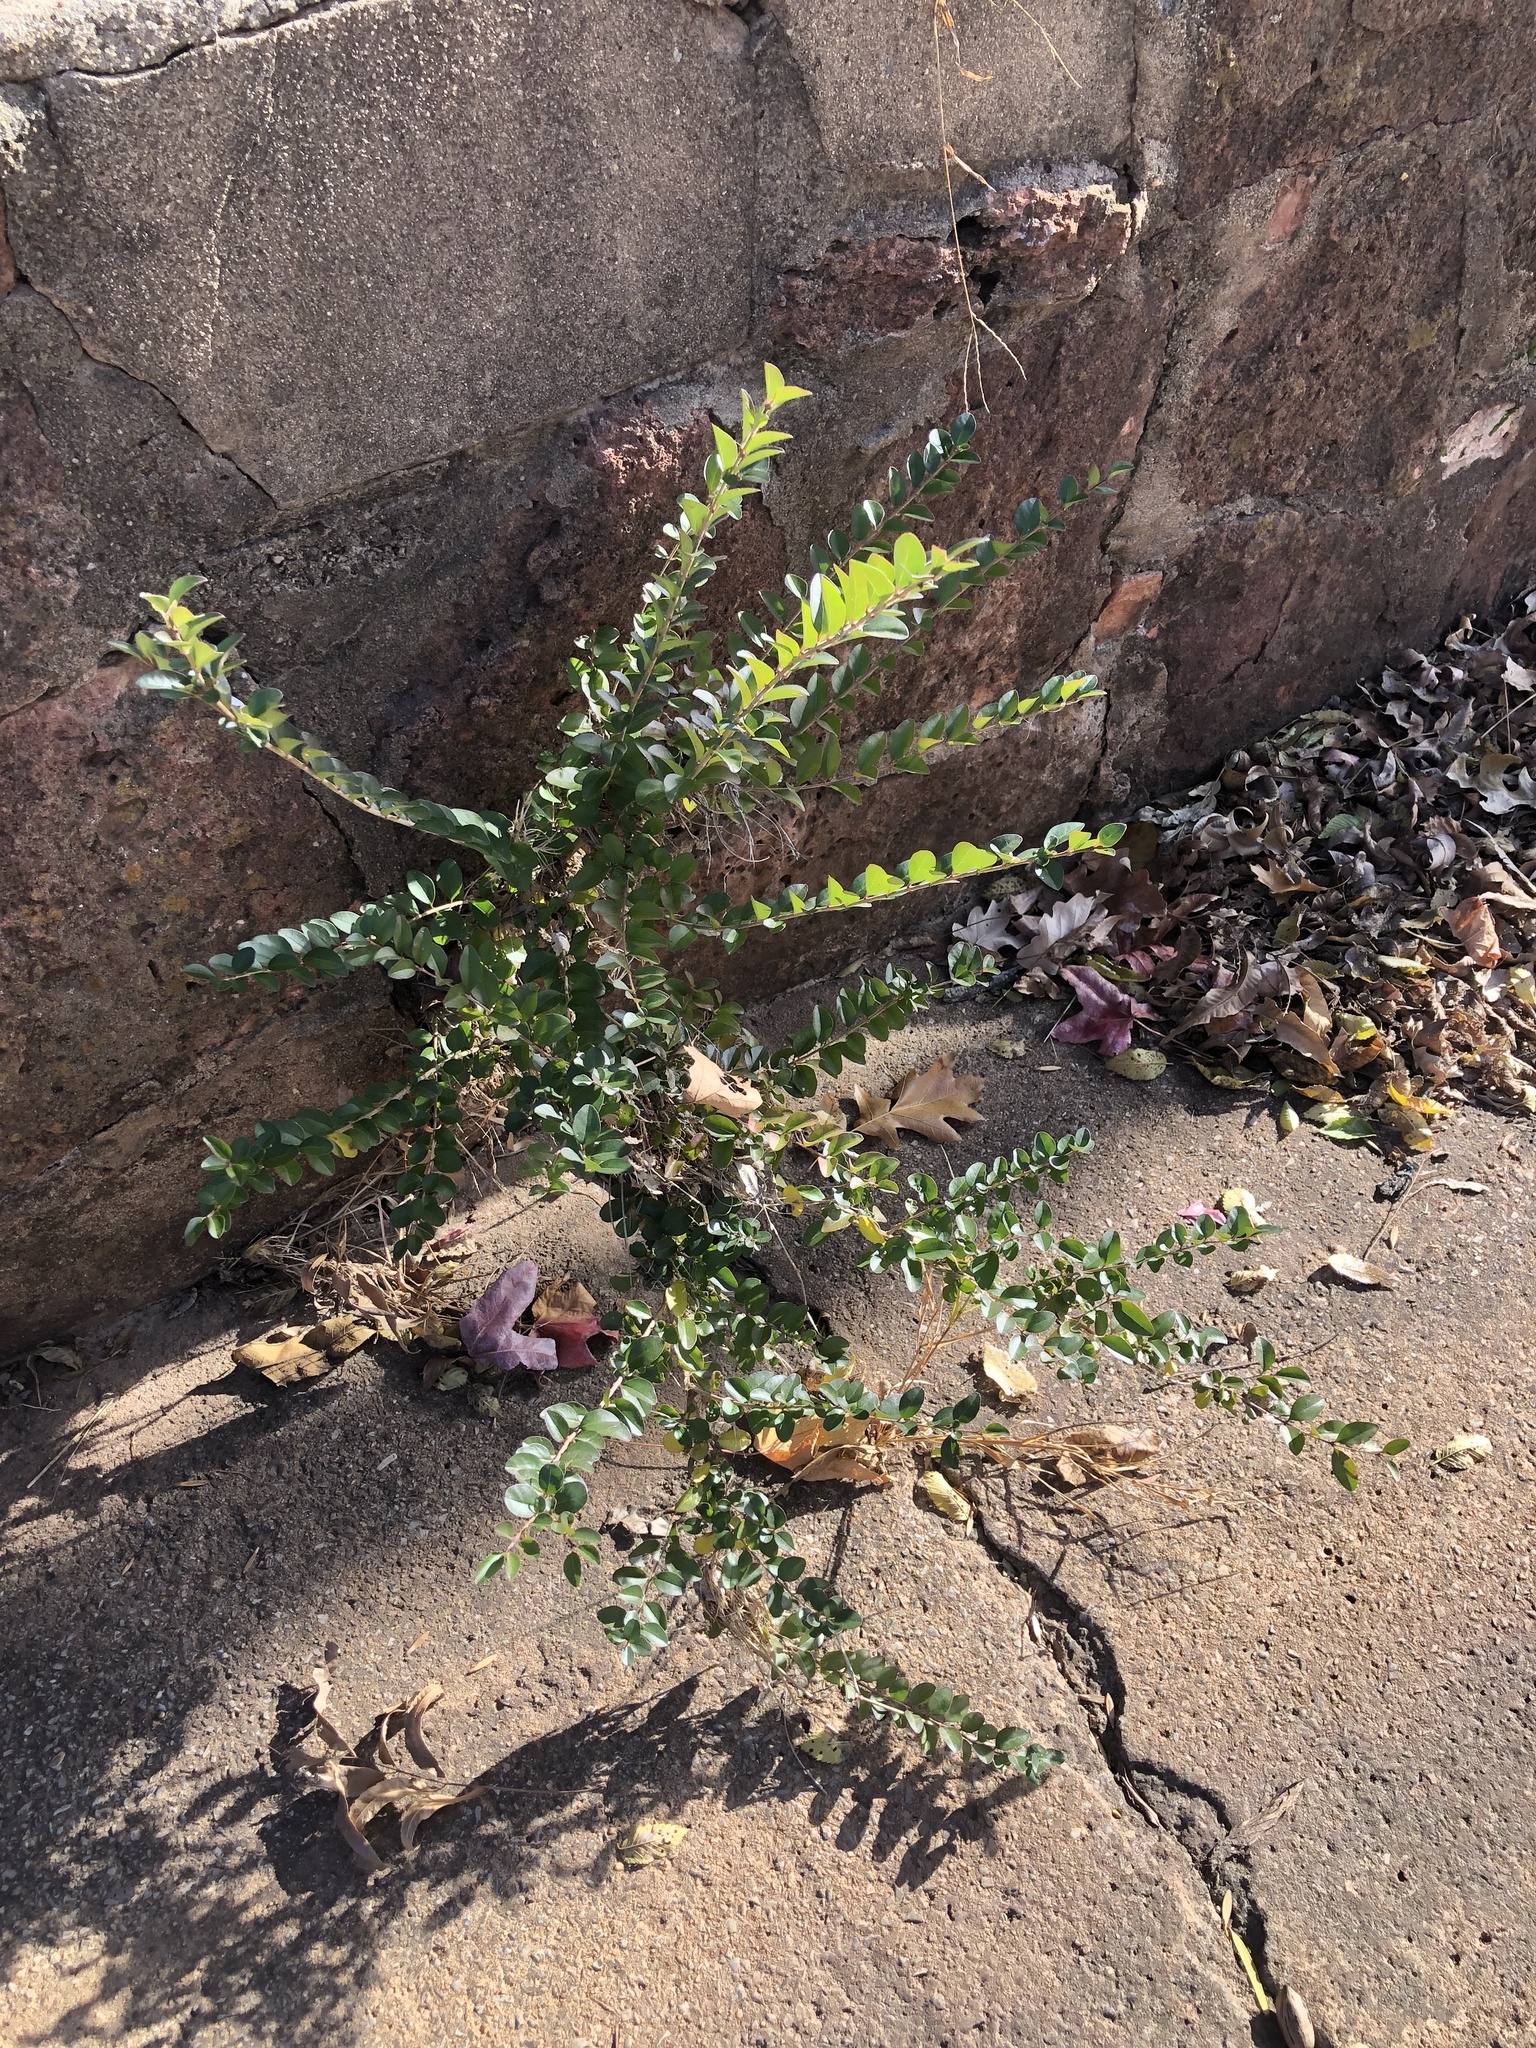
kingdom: Plantae
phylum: Tracheophyta
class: Magnoliopsida
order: Lamiales
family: Oleaceae
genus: Ligustrum
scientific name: Ligustrum sinense
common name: Chinese privet
